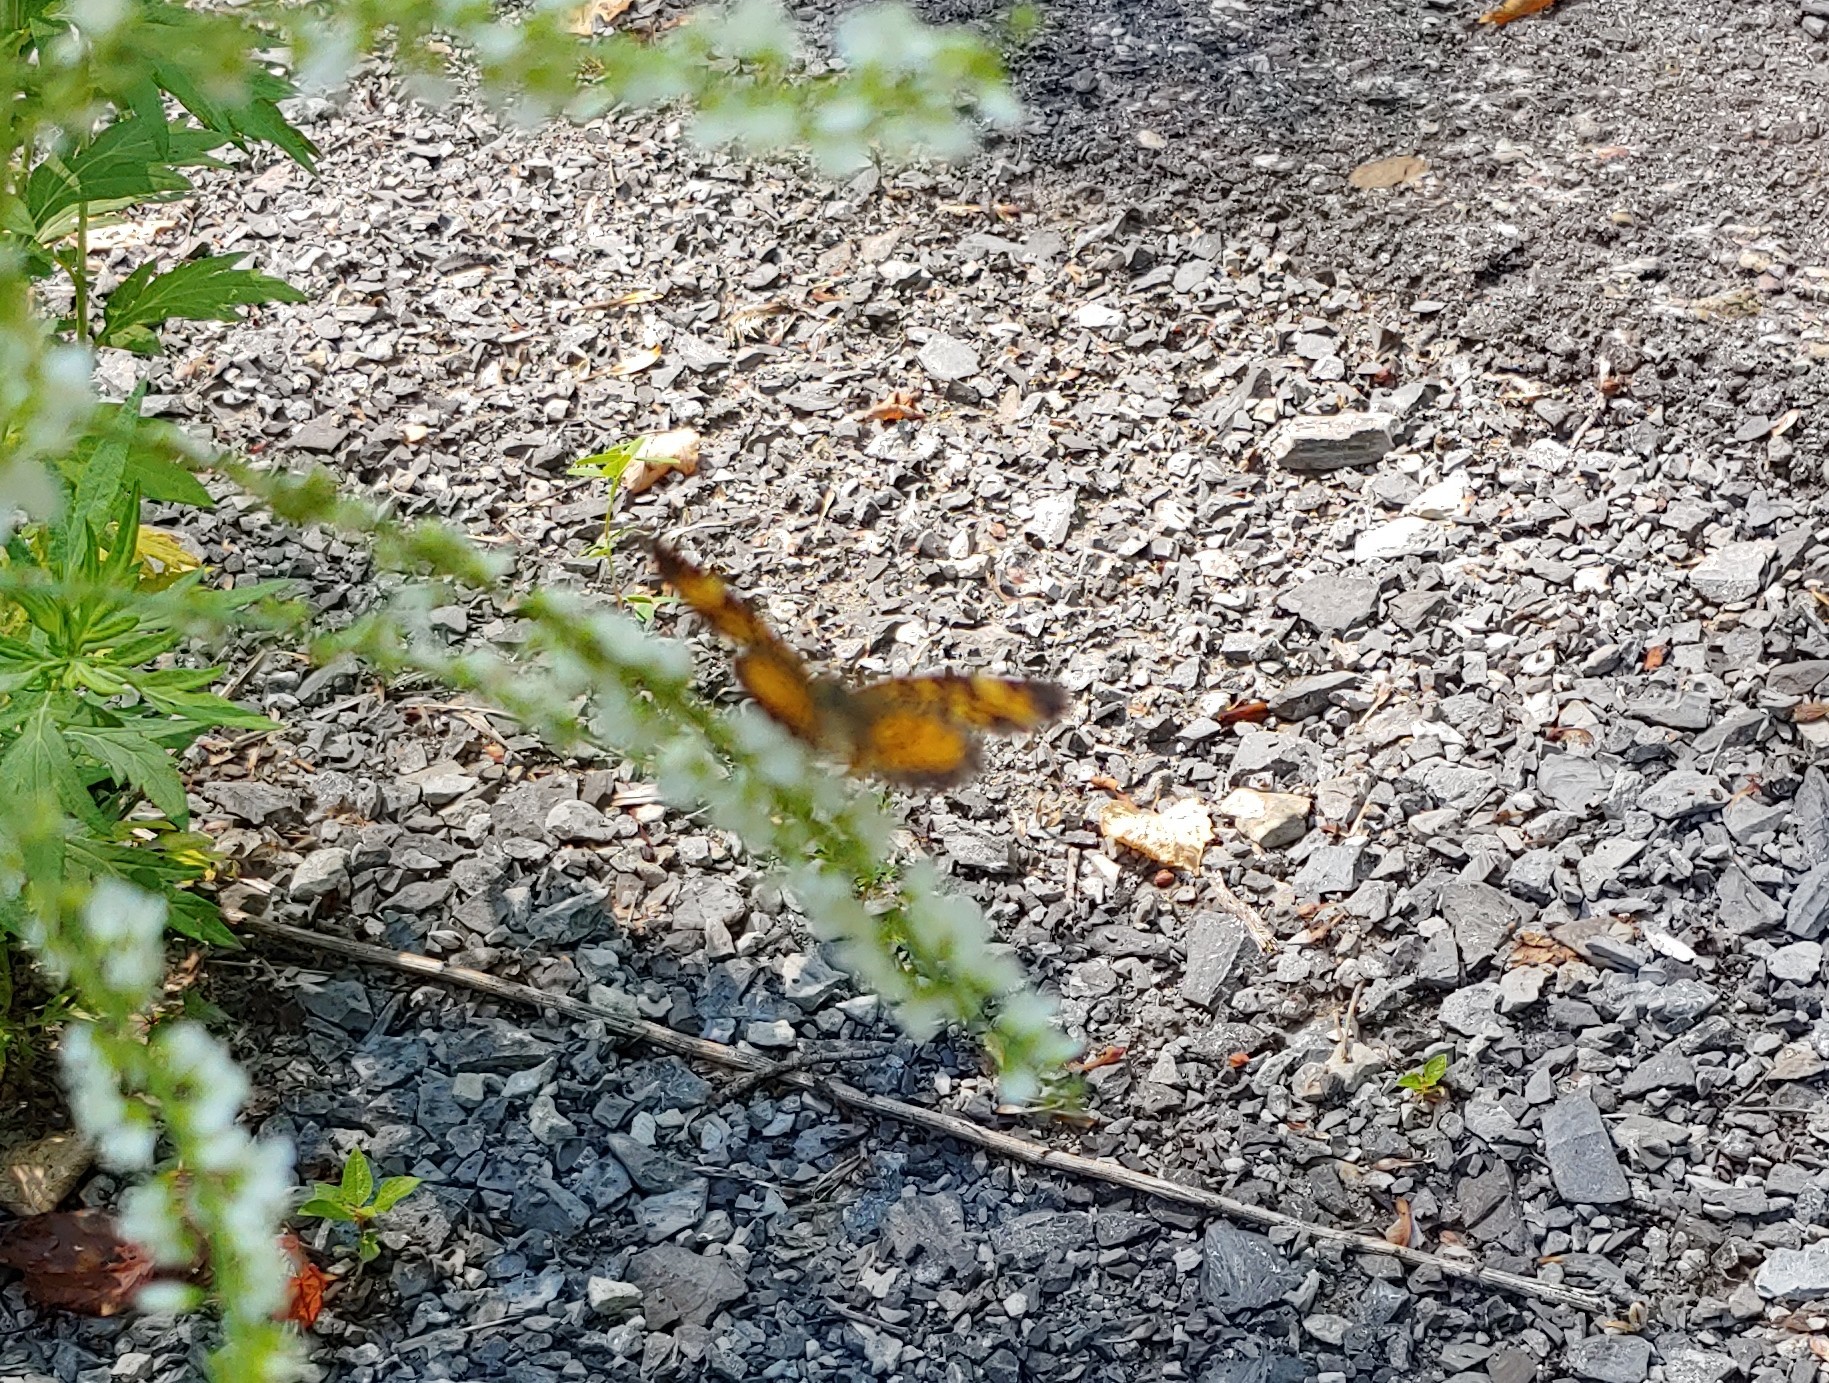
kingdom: Animalia
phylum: Arthropoda
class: Insecta
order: Lepidoptera
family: Nymphalidae
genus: Phyciodes
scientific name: Phyciodes tharos
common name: Pearl crescent
